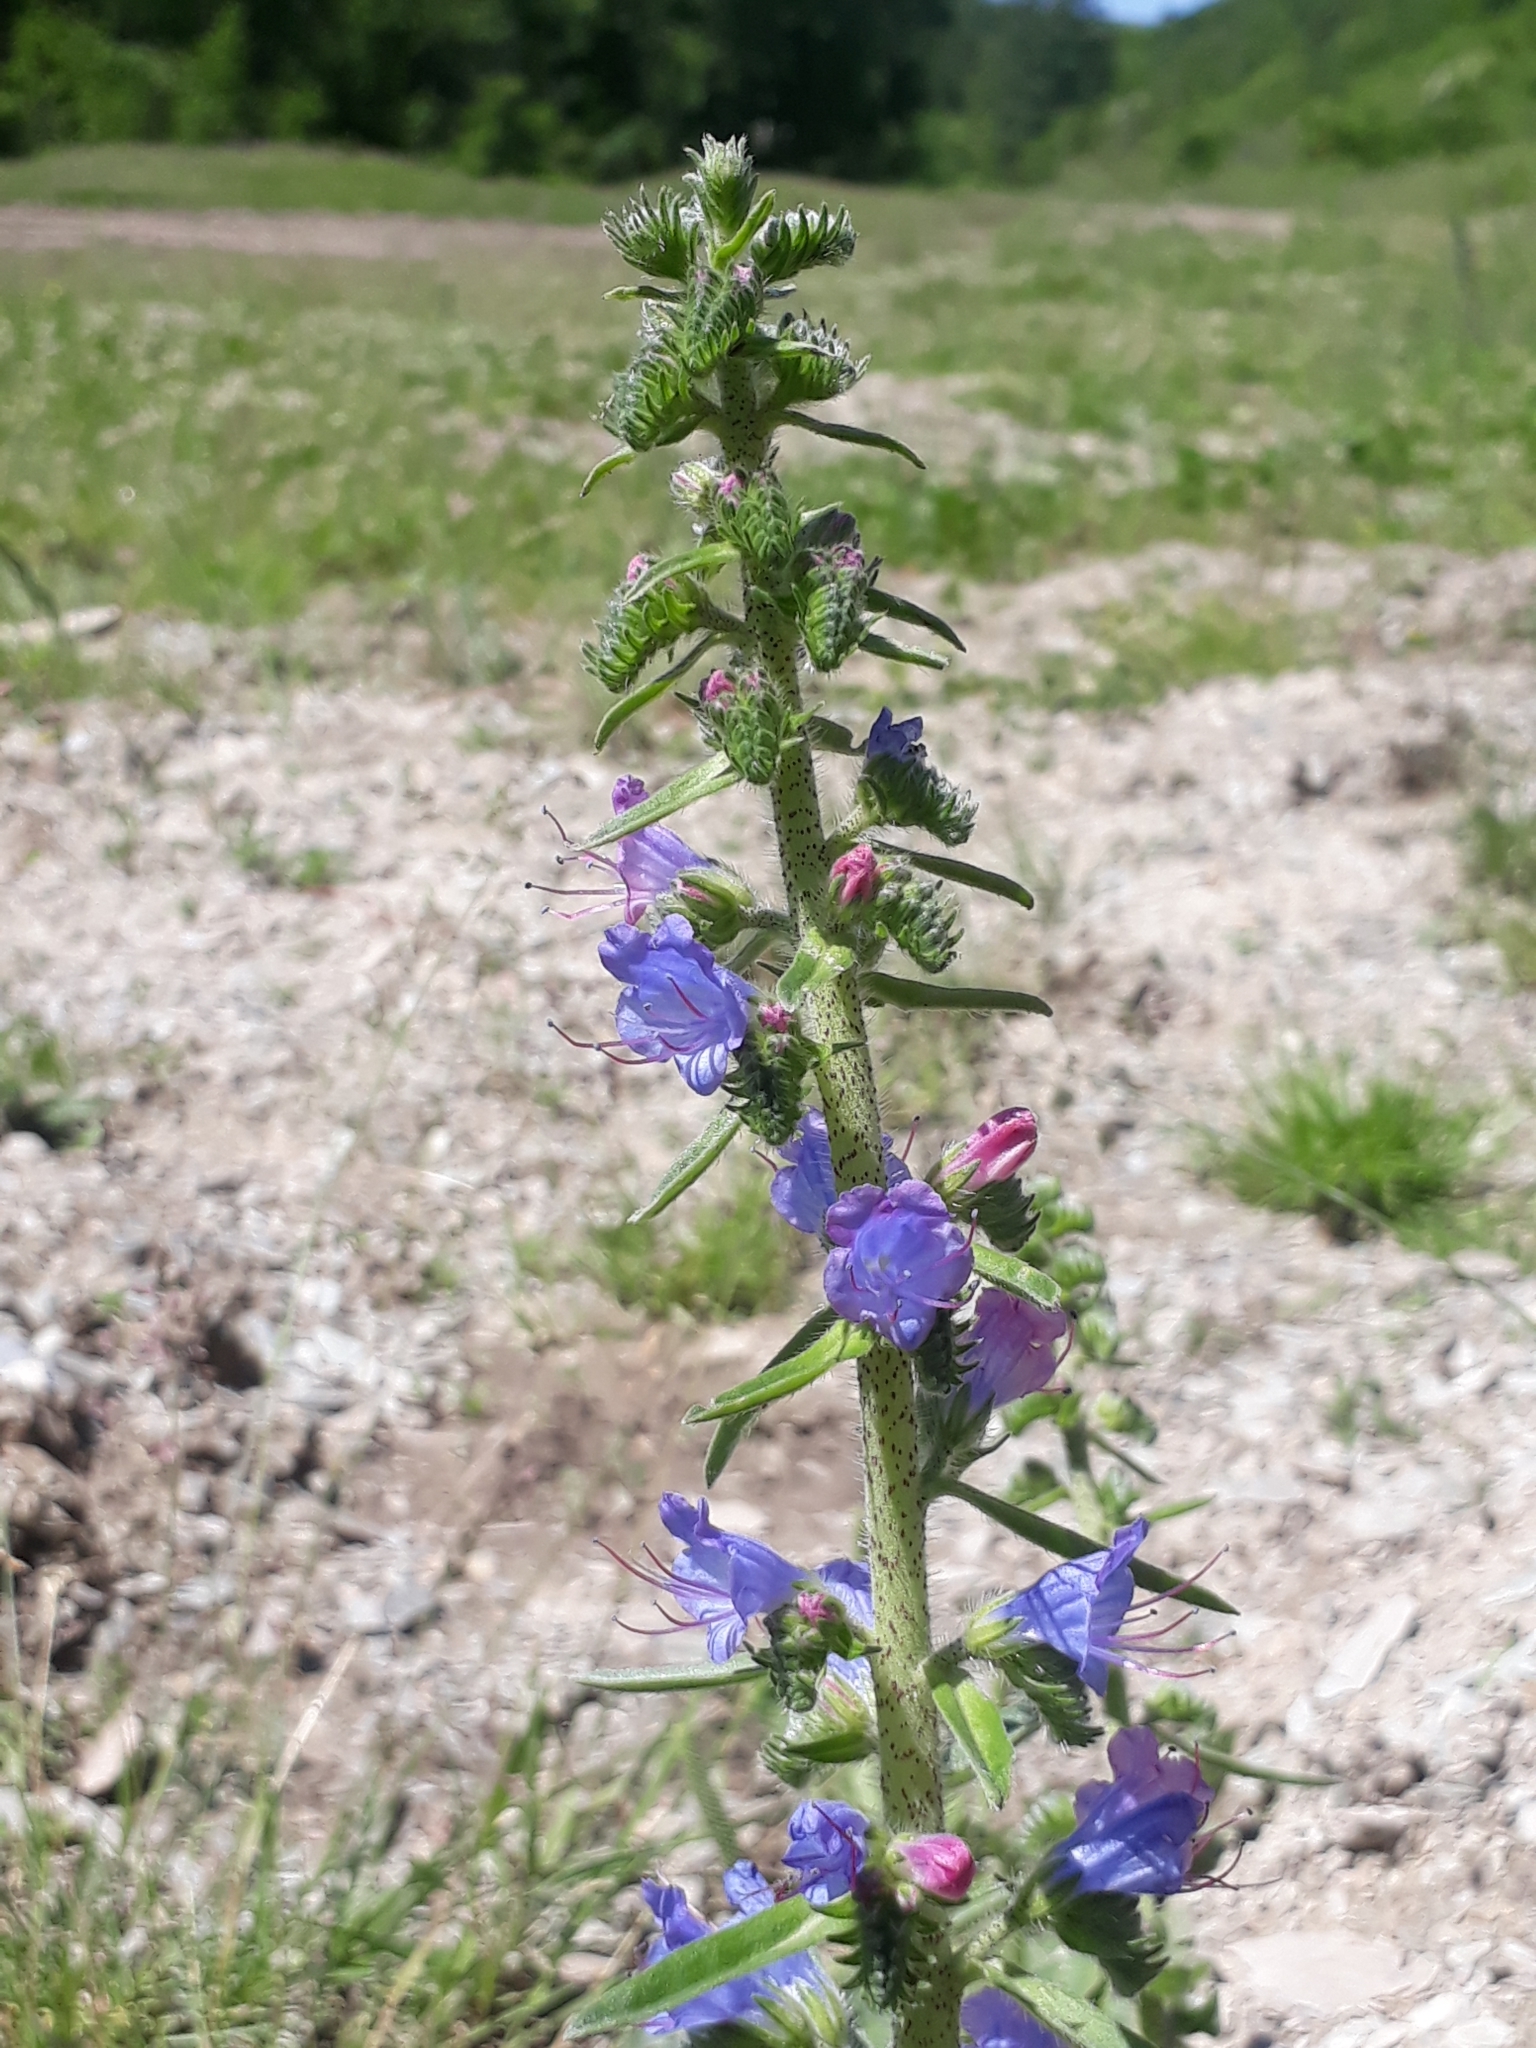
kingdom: Plantae
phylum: Tracheophyta
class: Magnoliopsida
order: Boraginales
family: Boraginaceae
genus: Echium
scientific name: Echium vulgare
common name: Common viper's bugloss
